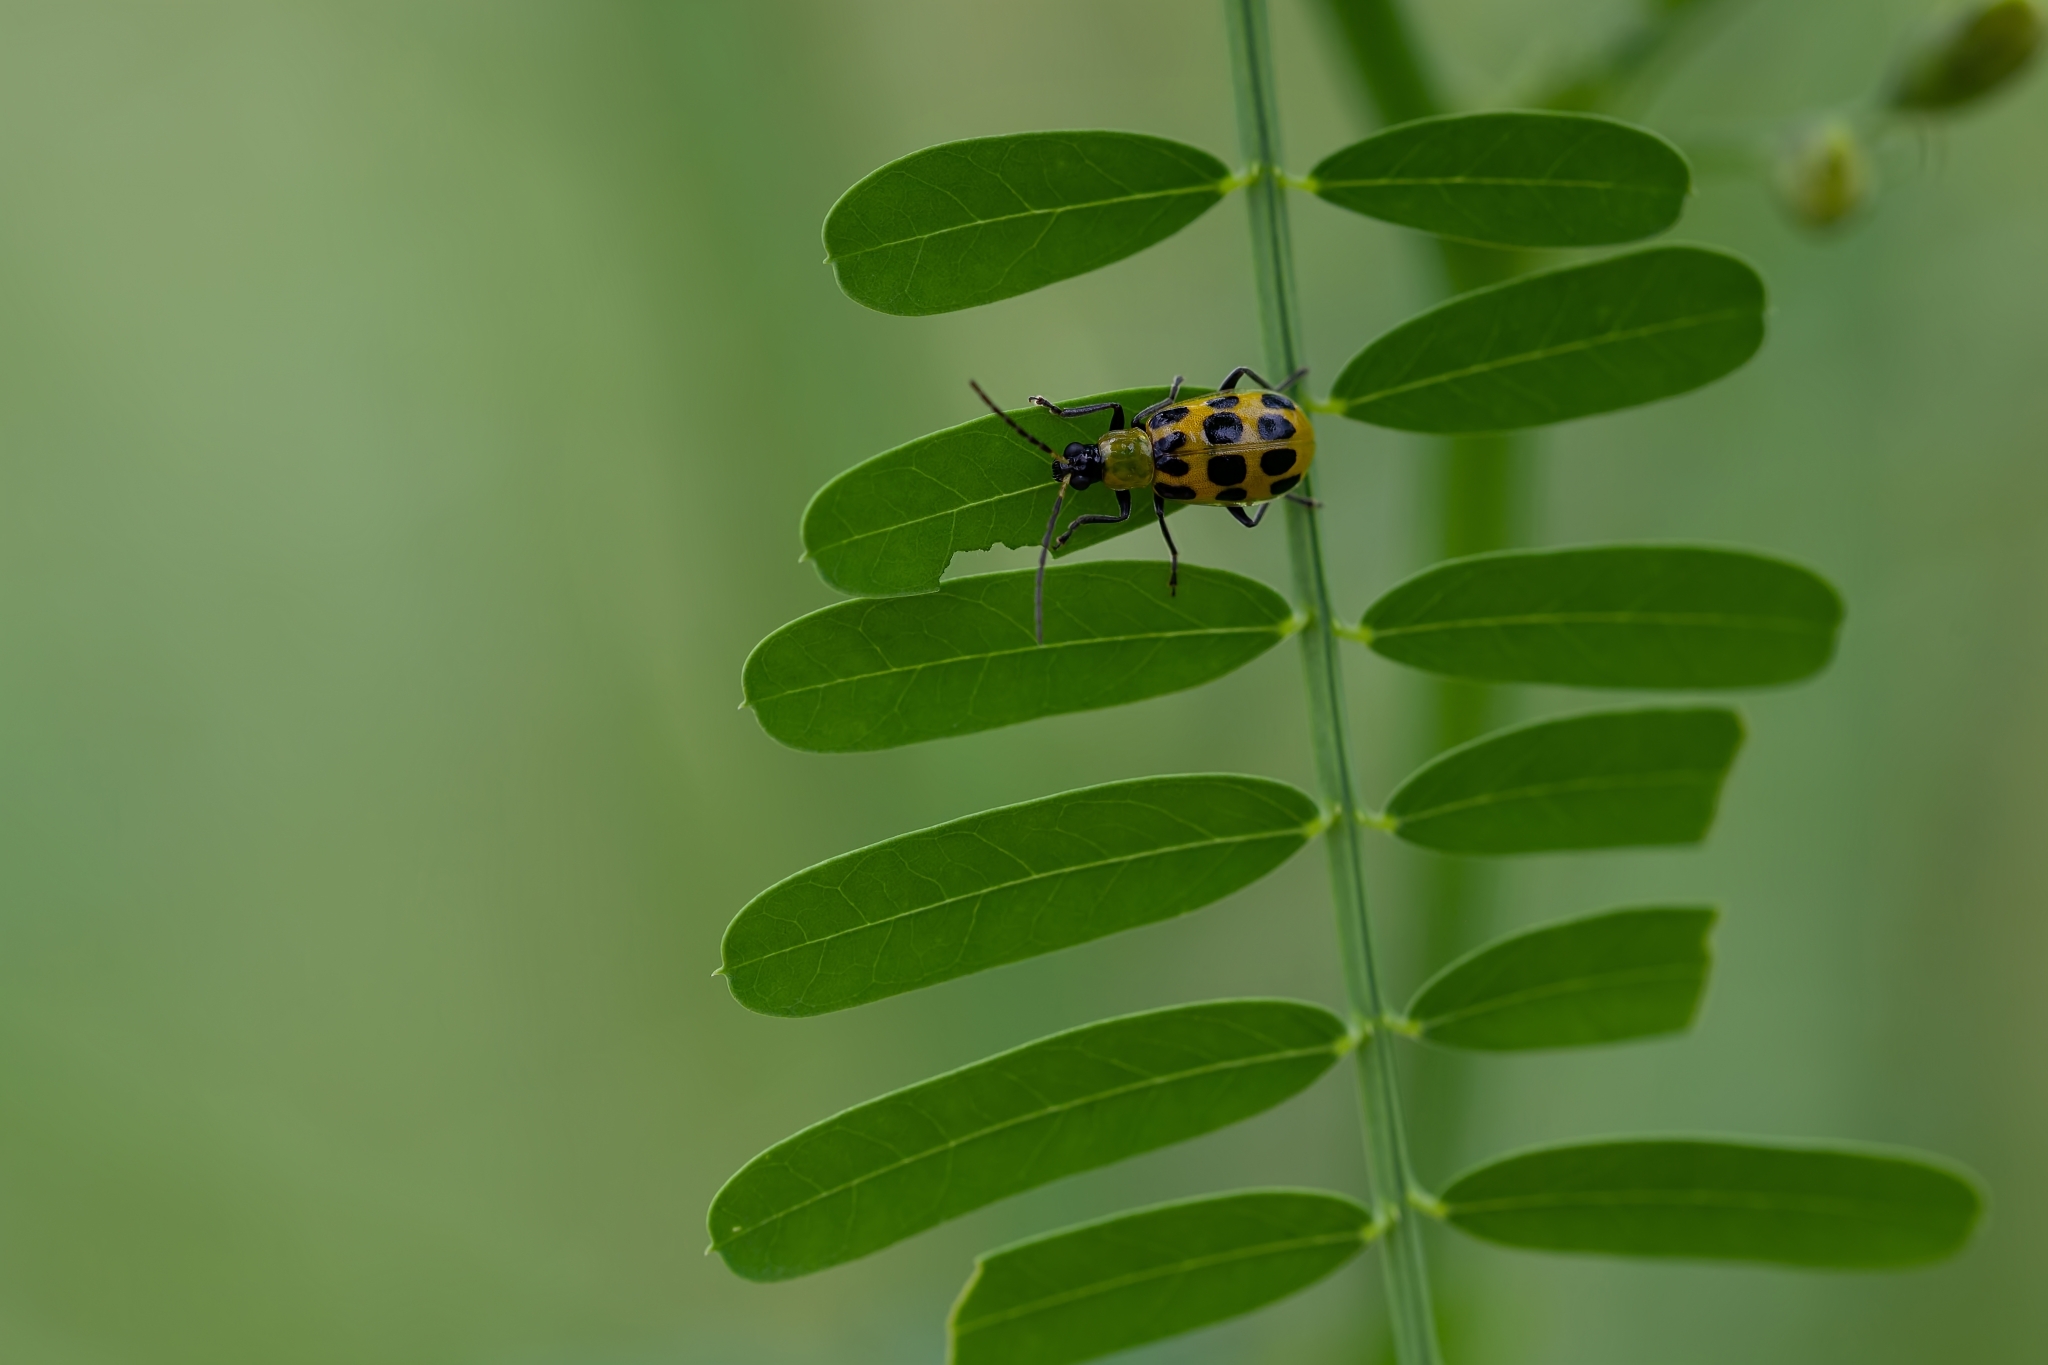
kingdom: Animalia
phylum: Arthropoda
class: Insecta
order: Coleoptera
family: Chrysomelidae
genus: Diabrotica
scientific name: Diabrotica undecimpunctata
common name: Spotted cucumber beetle
